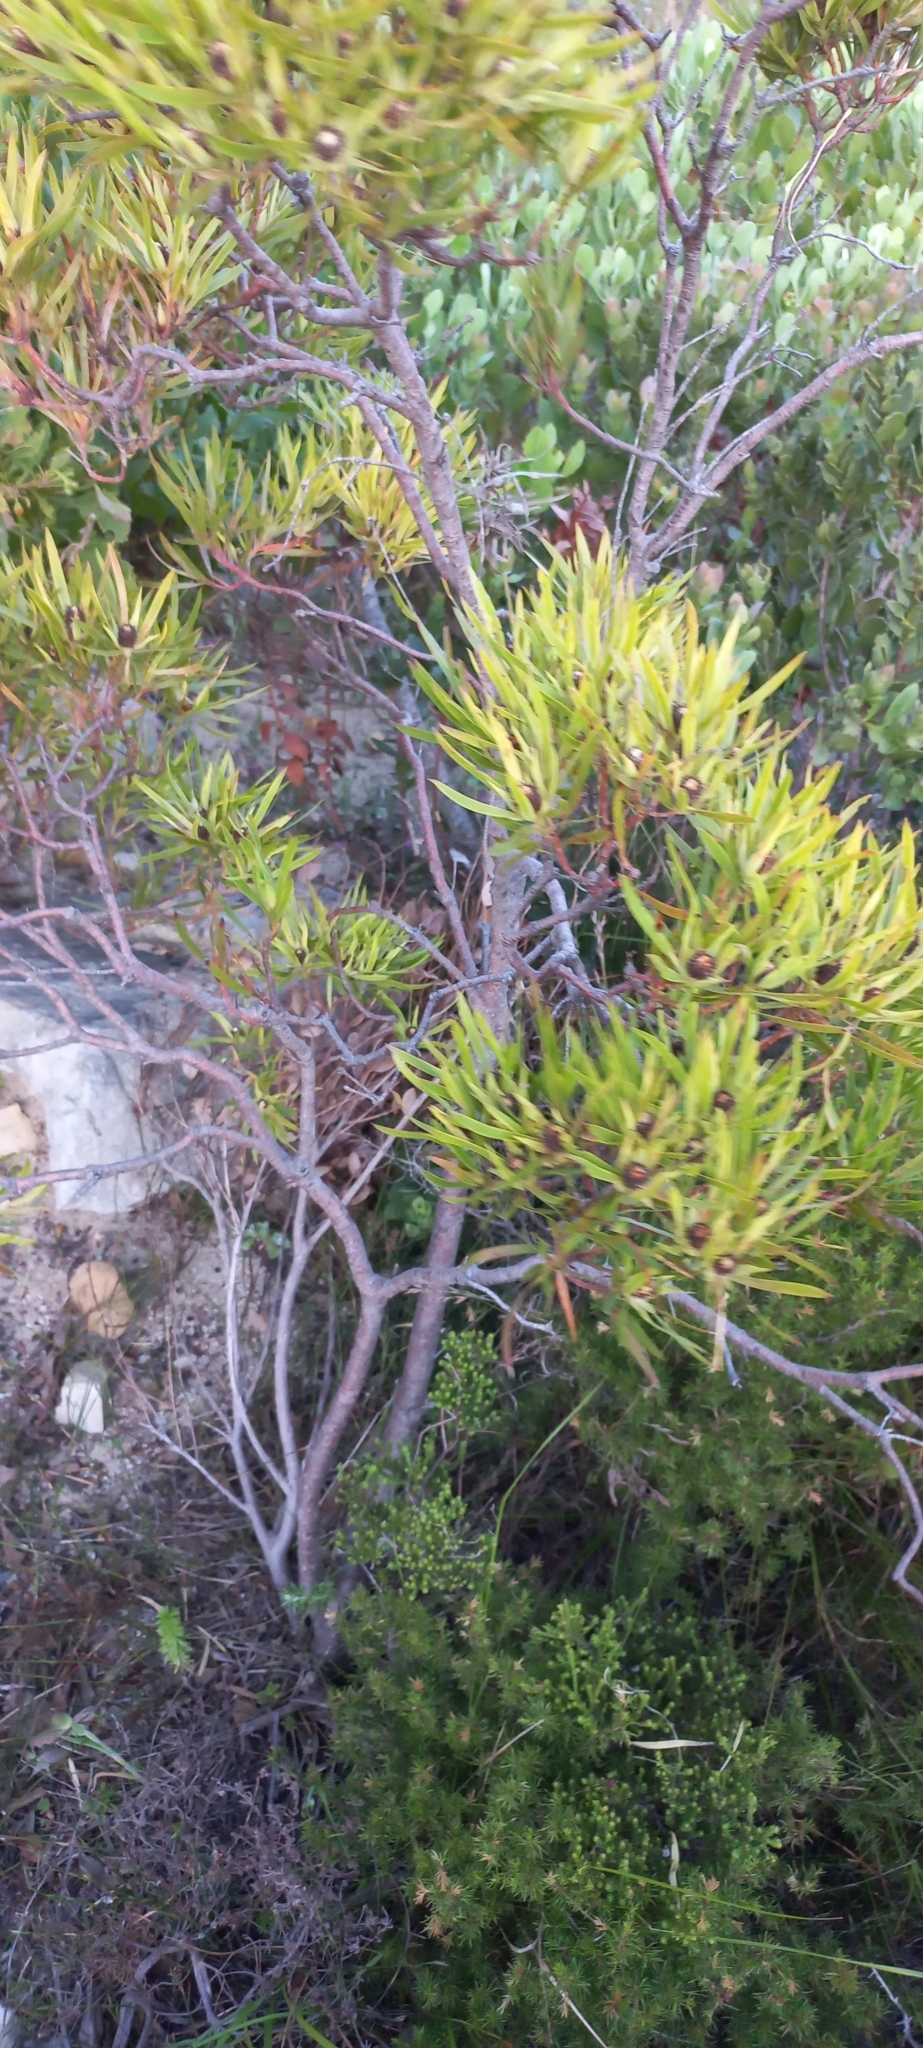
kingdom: Plantae
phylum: Tracheophyta
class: Magnoliopsida
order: Proteales
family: Proteaceae
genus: Leucadendron
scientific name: Leucadendron xanthoconus
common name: Sickle-leaf conebush
